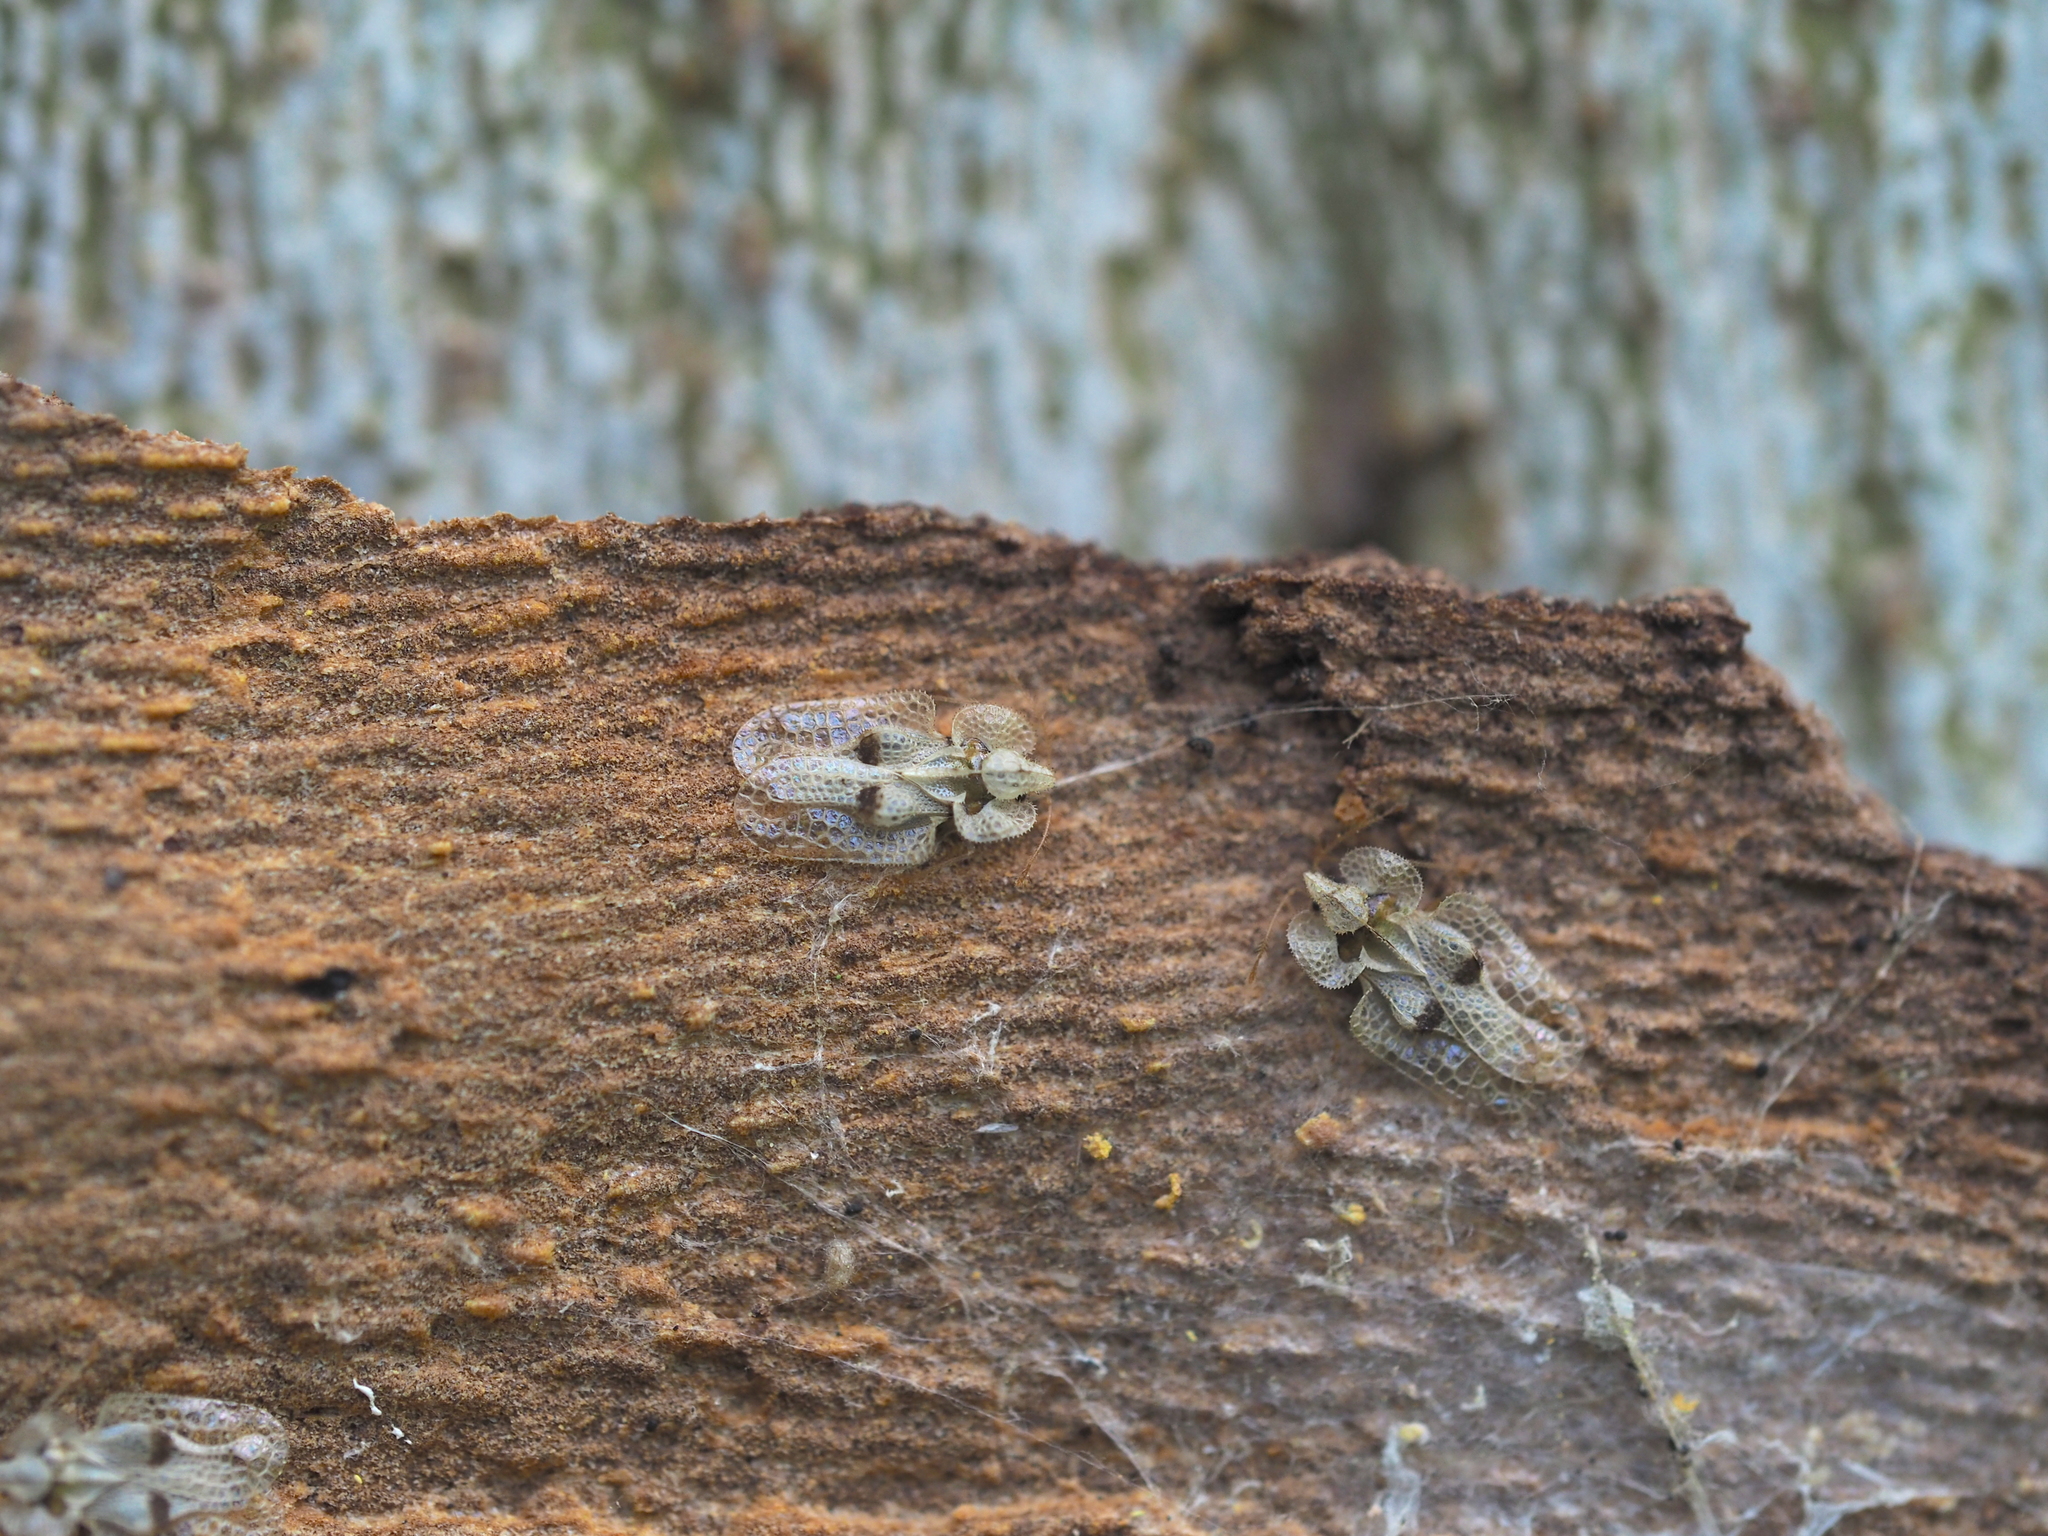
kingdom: Animalia
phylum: Arthropoda
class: Insecta
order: Hemiptera
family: Tingidae
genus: Corythucha
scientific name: Corythucha ciliata
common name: Sycamore lace bug
